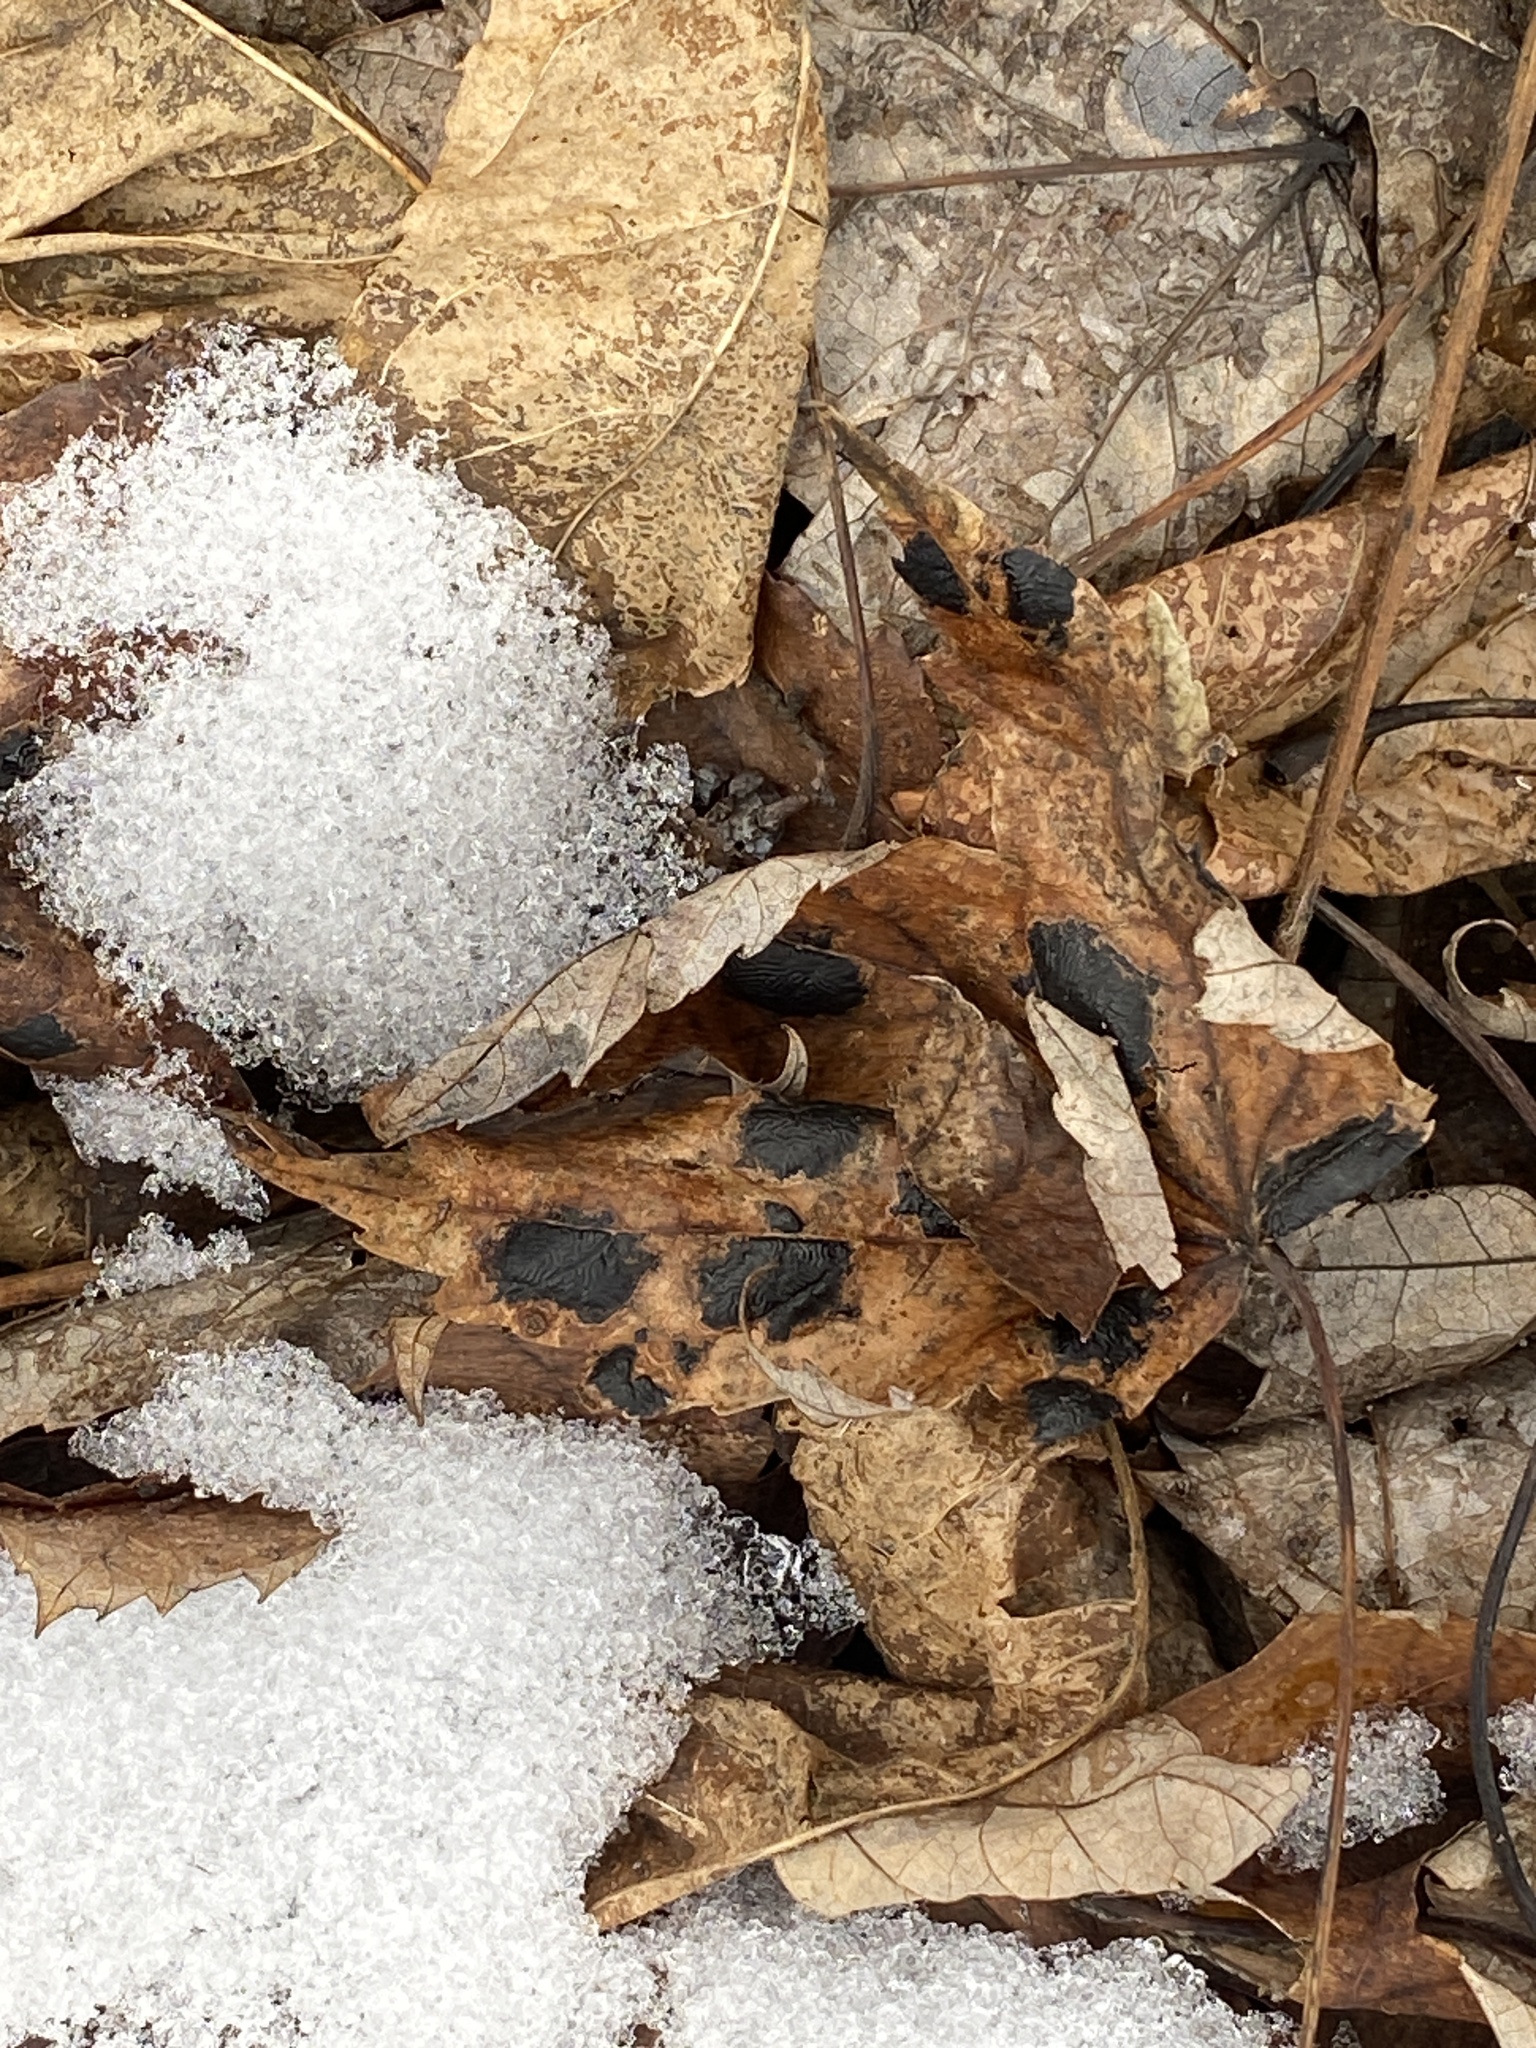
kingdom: Fungi
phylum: Ascomycota
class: Leotiomycetes
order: Rhytismatales
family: Rhytismataceae
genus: Rhytisma
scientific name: Rhytisma americanum
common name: American tar spot
